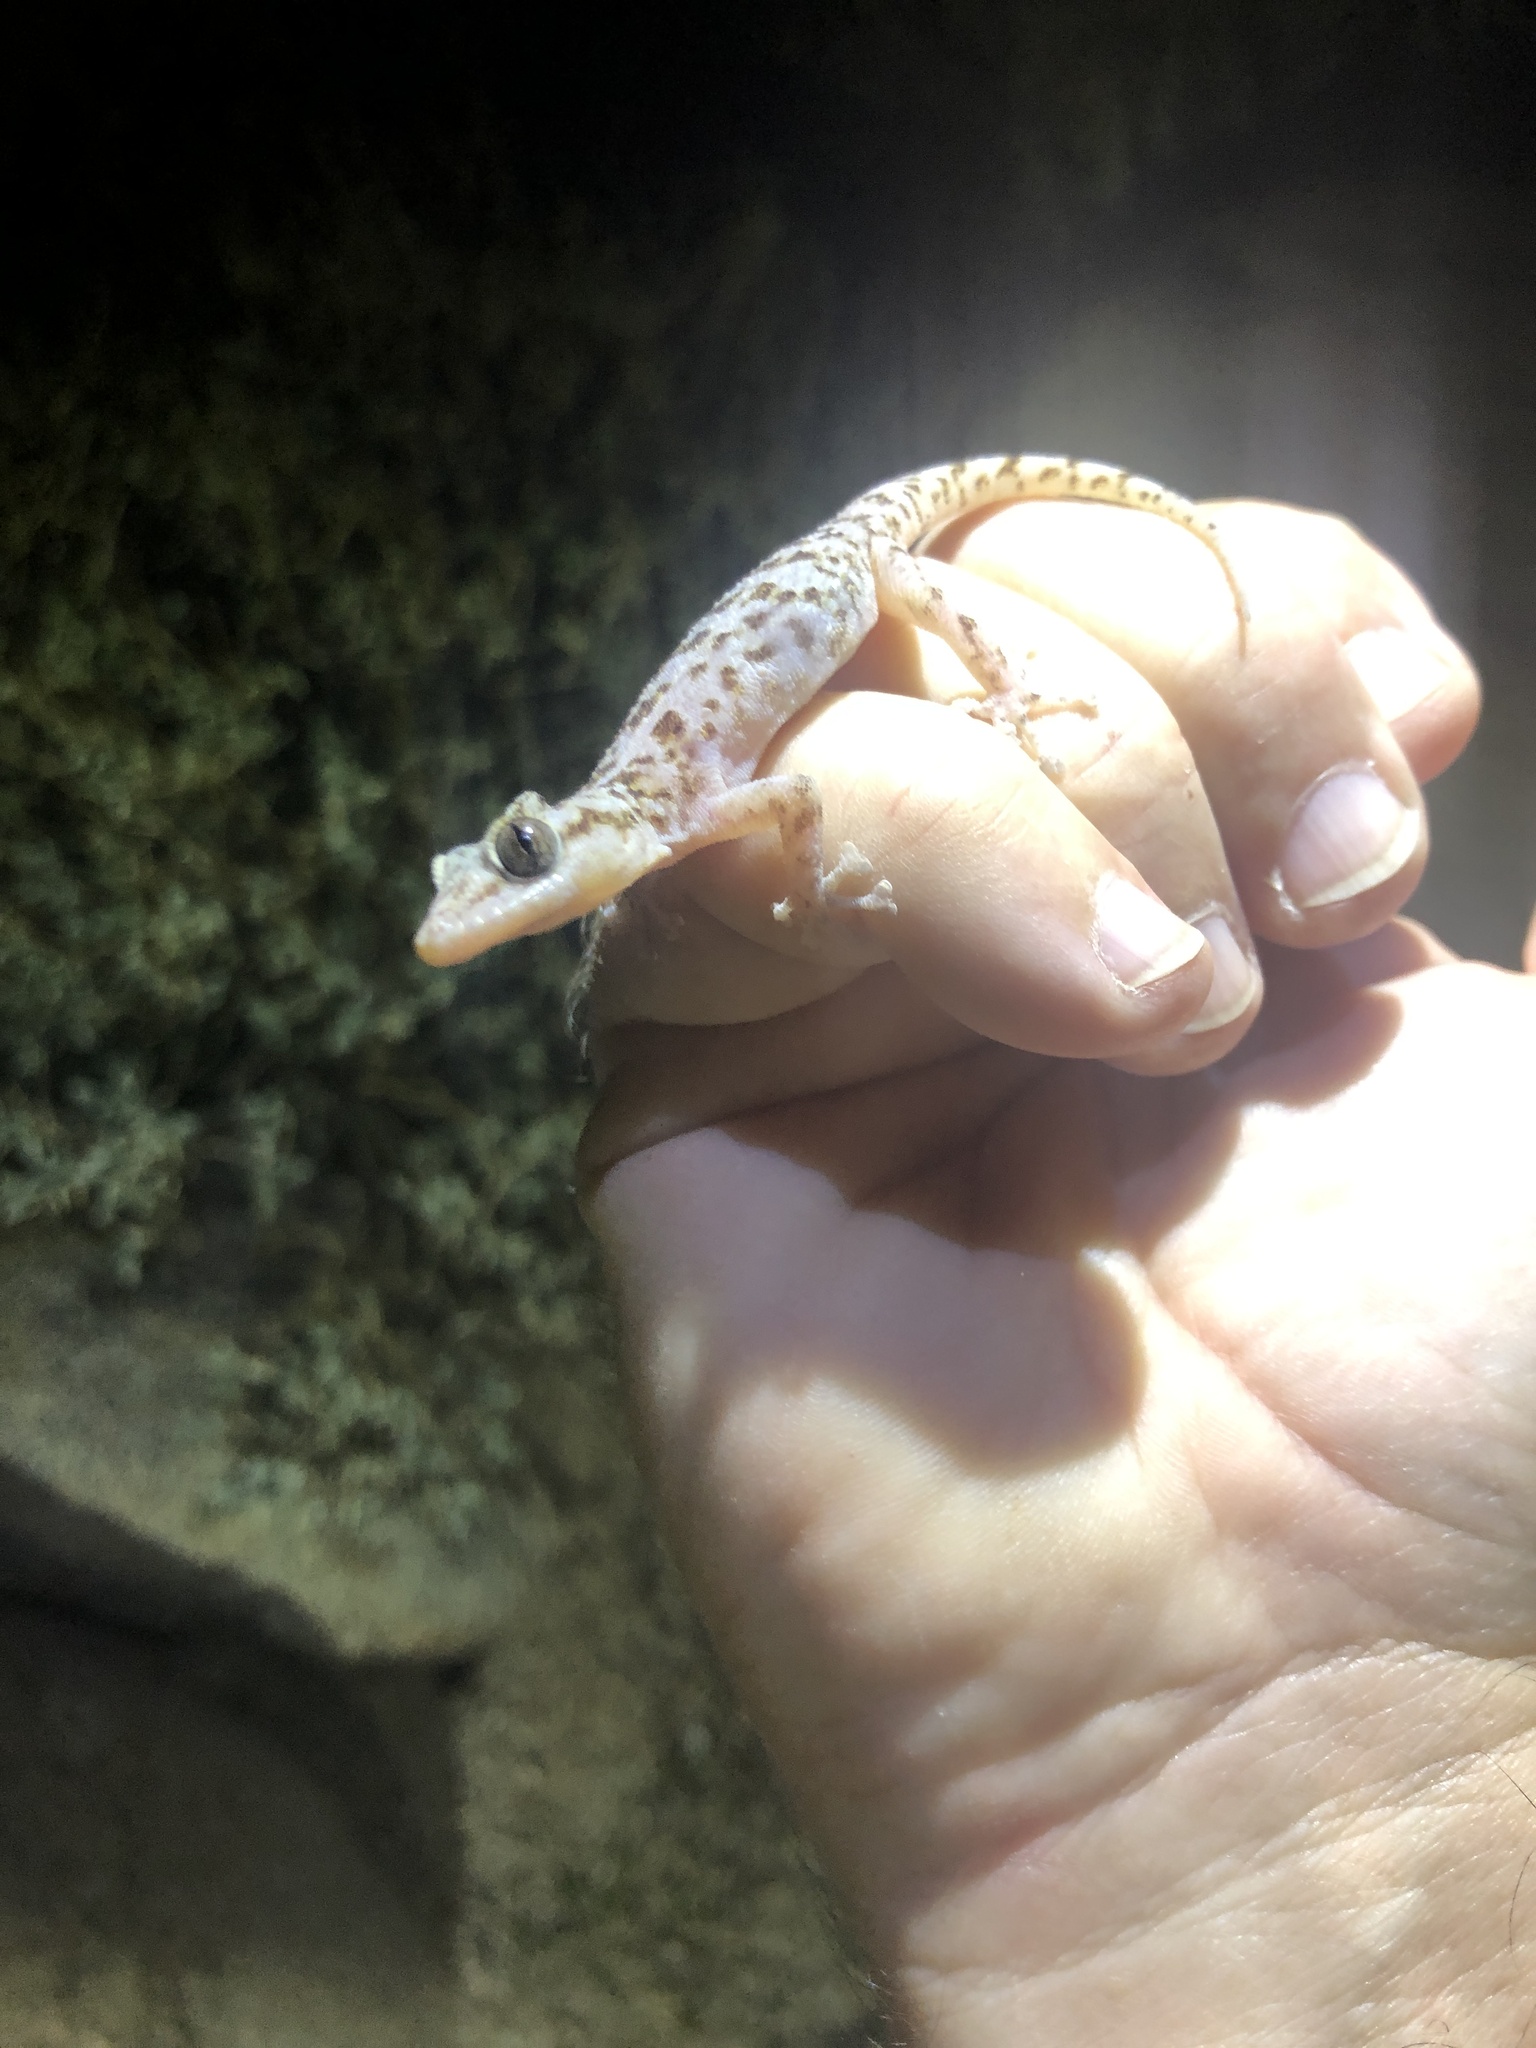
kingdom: Animalia
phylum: Chordata
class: Squamata
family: Phyllodactylidae
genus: Phyllodactylus
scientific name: Phyllodactylus nocticolus
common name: Peninsula leaf-toed gecko
